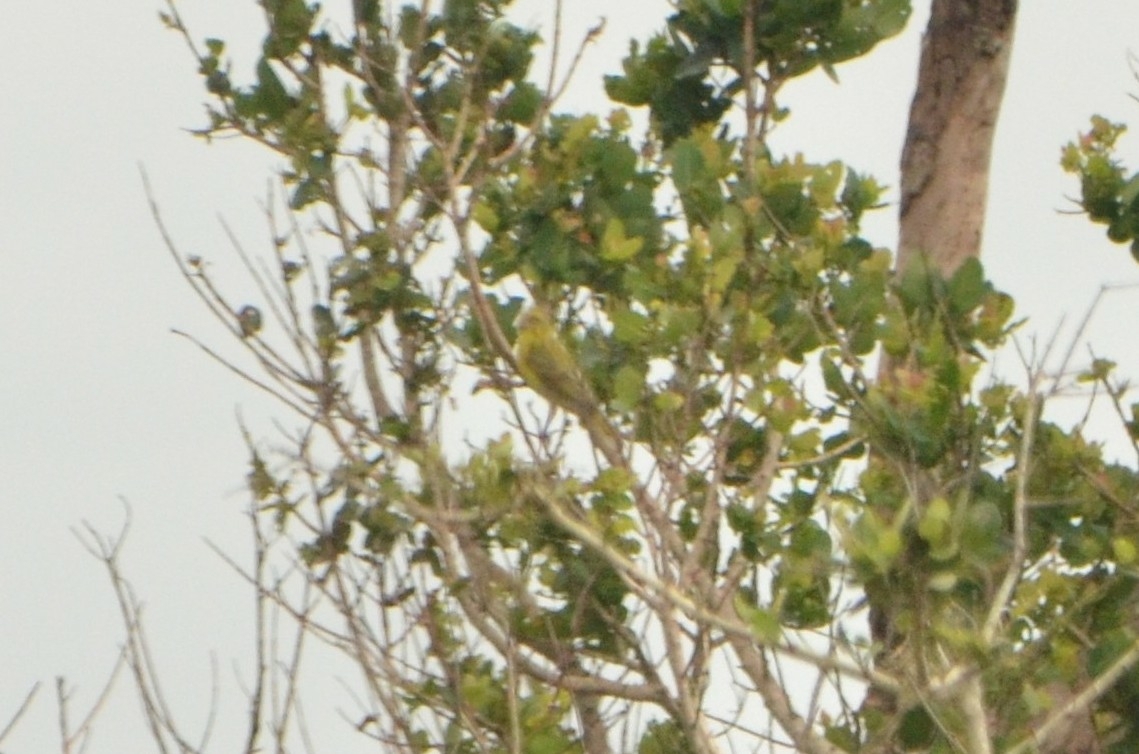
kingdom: Animalia
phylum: Chordata
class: Aves
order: Passeriformes
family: Fringillidae
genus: Crithagra
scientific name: Crithagra sulphurata
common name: Brimstone canary
